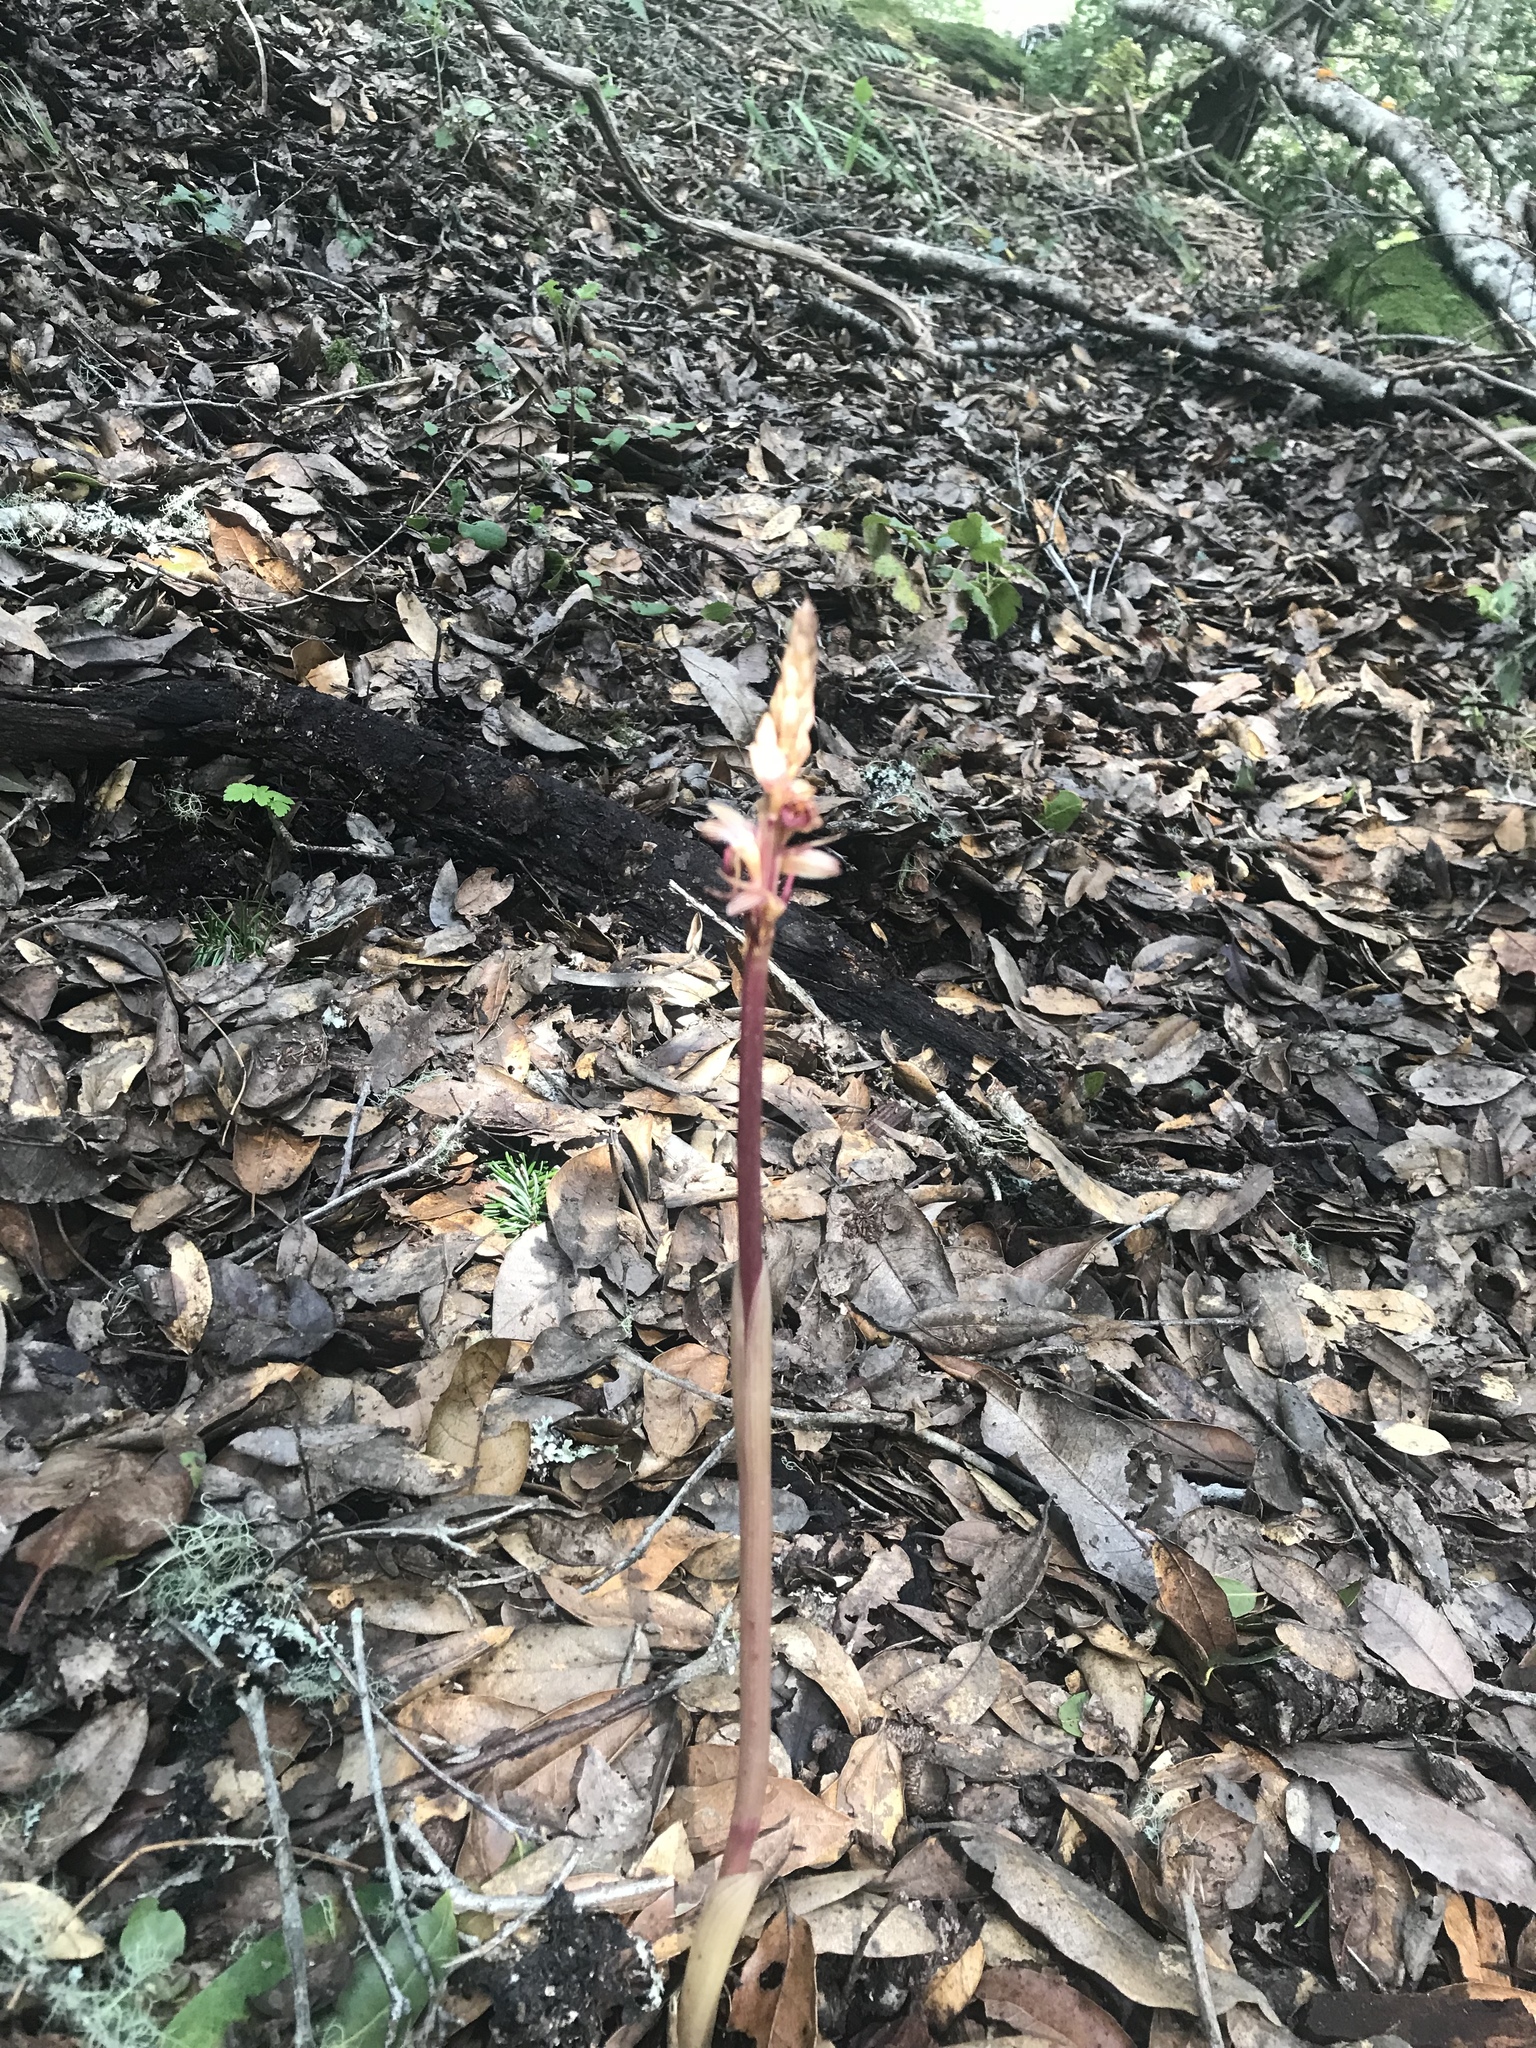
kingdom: Plantae
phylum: Tracheophyta
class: Liliopsida
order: Asparagales
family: Orchidaceae
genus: Corallorhiza
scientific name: Corallorhiza striata
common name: Hooded coralroot
